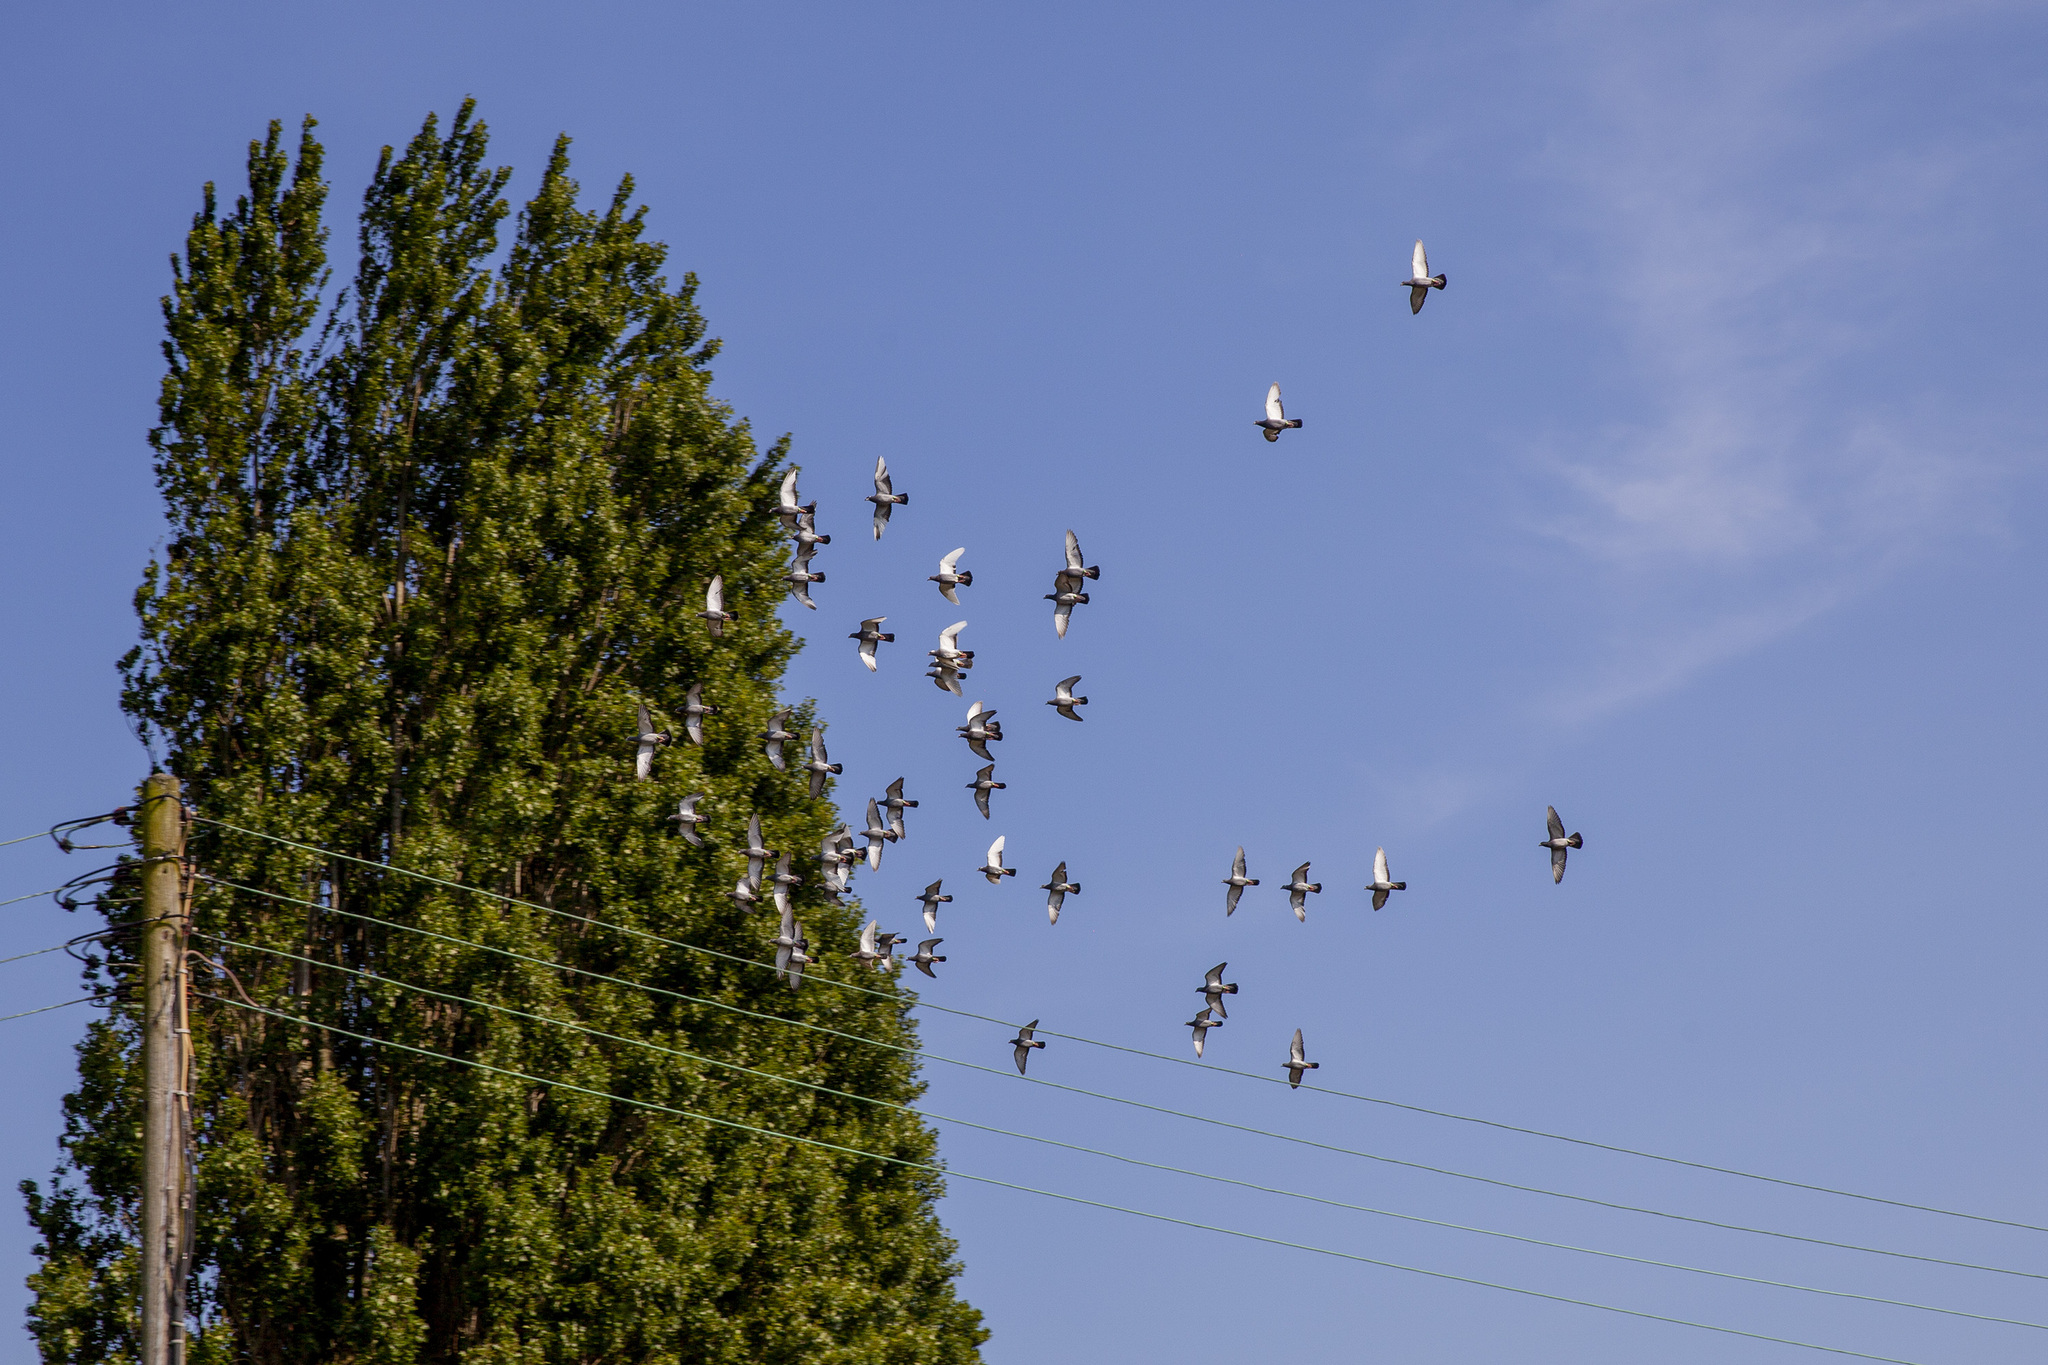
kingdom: Animalia
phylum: Chordata
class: Aves
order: Columbiformes
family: Columbidae
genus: Columba
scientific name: Columba livia
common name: Rock pigeon
